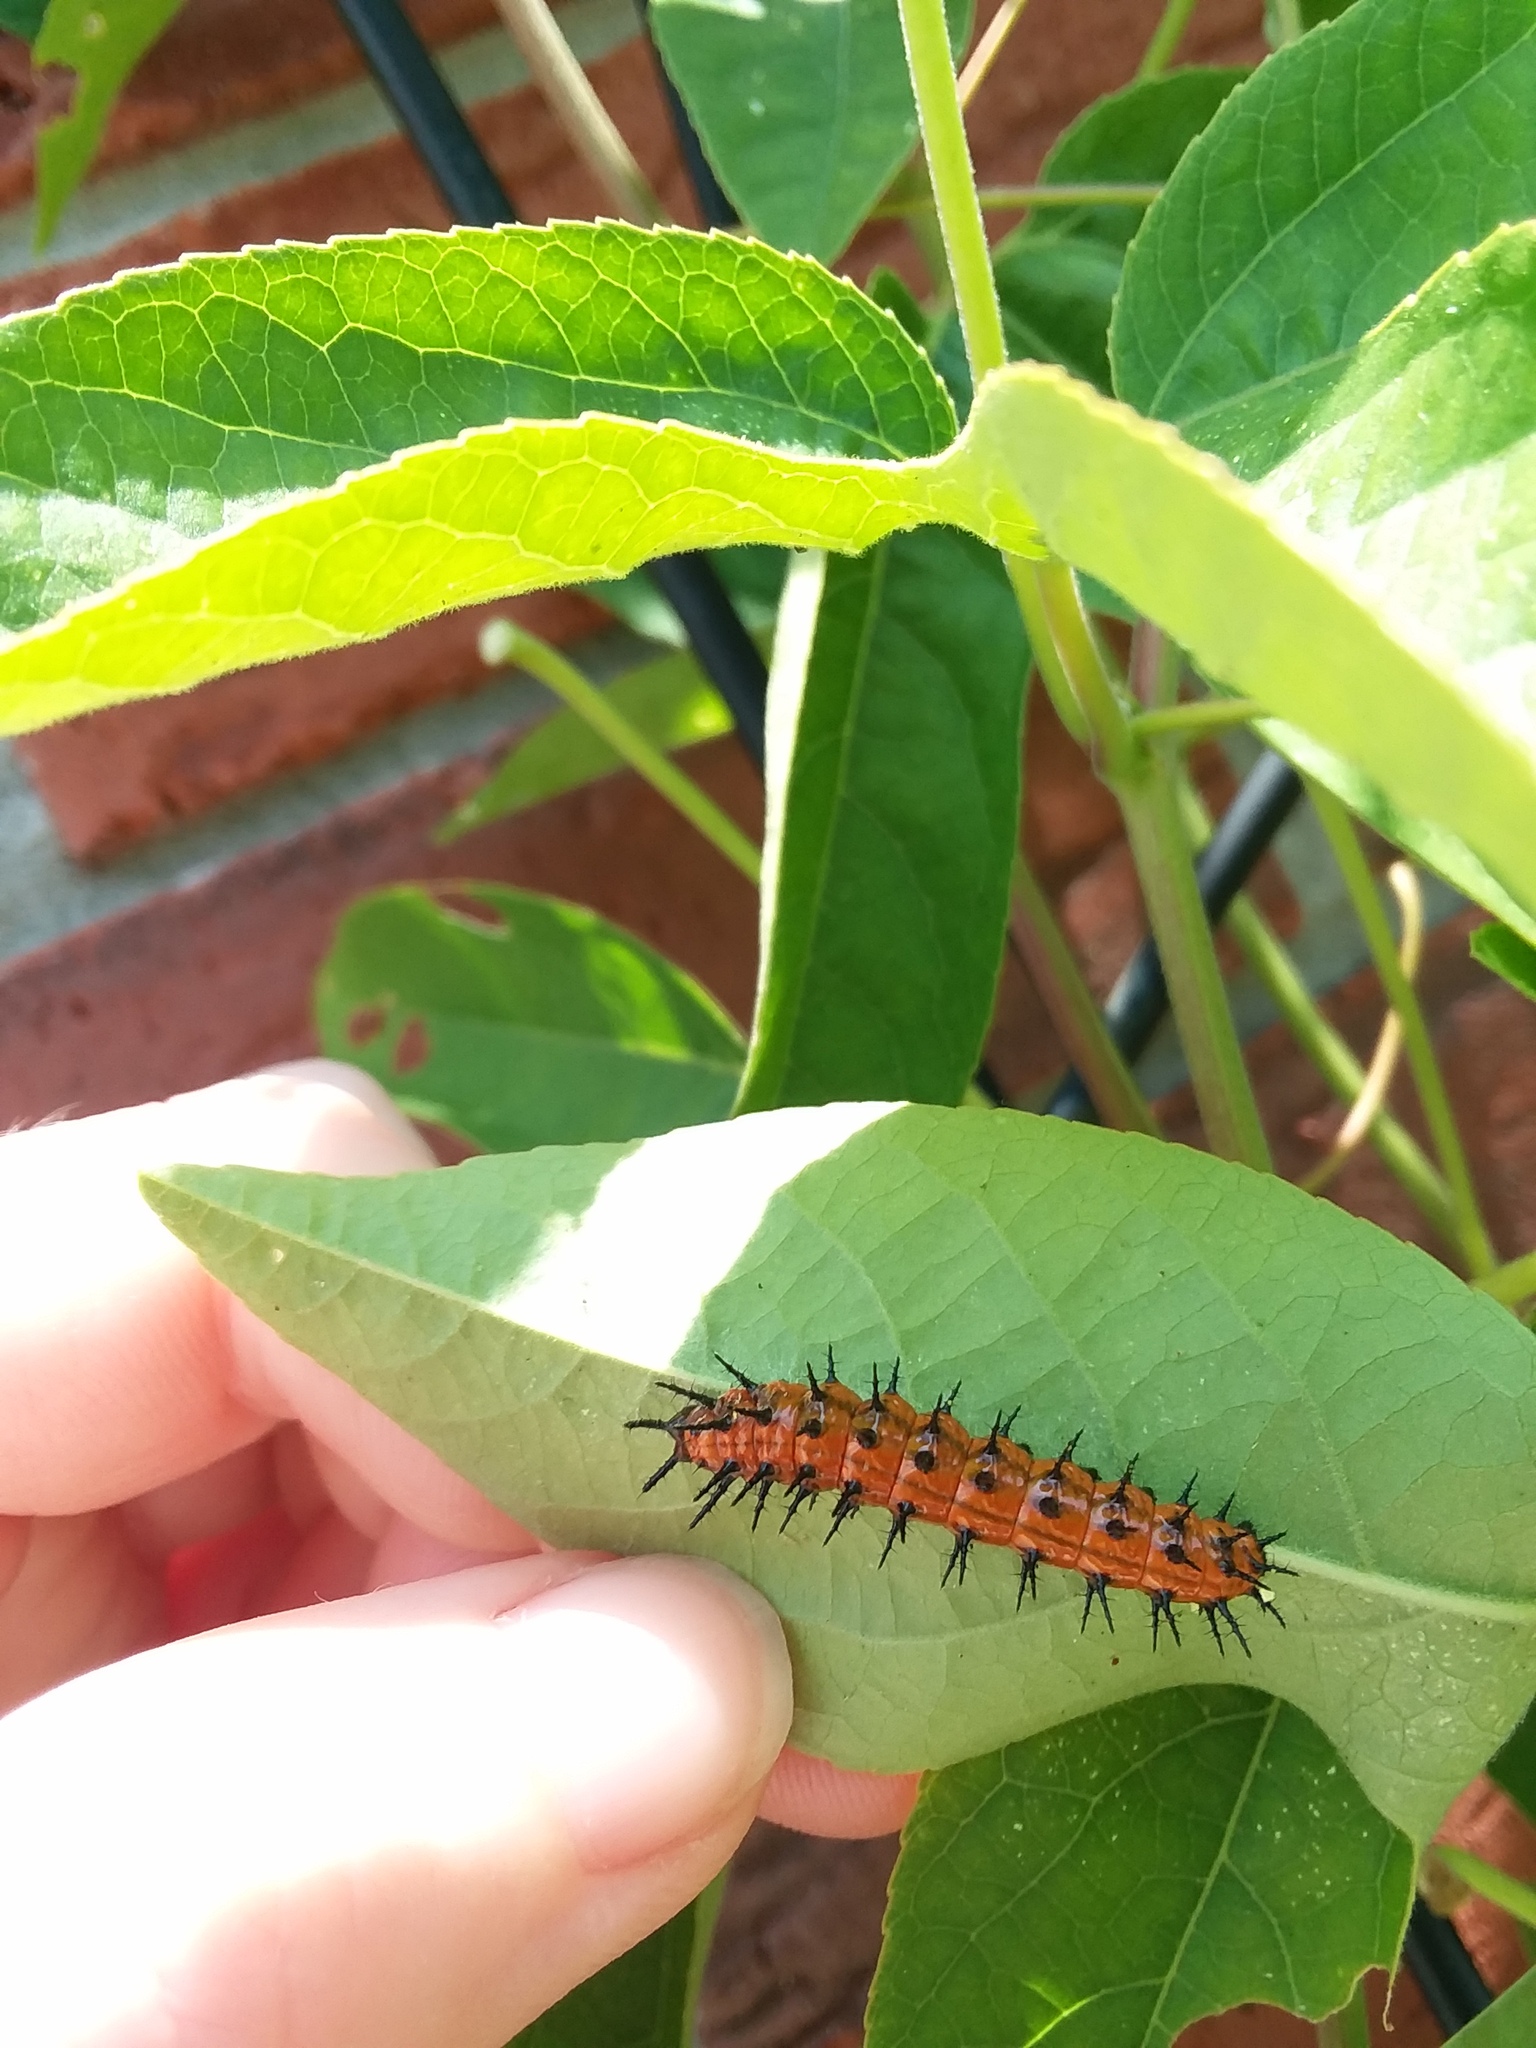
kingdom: Animalia
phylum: Arthropoda
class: Insecta
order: Lepidoptera
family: Nymphalidae
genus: Dione
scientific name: Dione vanillae
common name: Gulf fritillary
